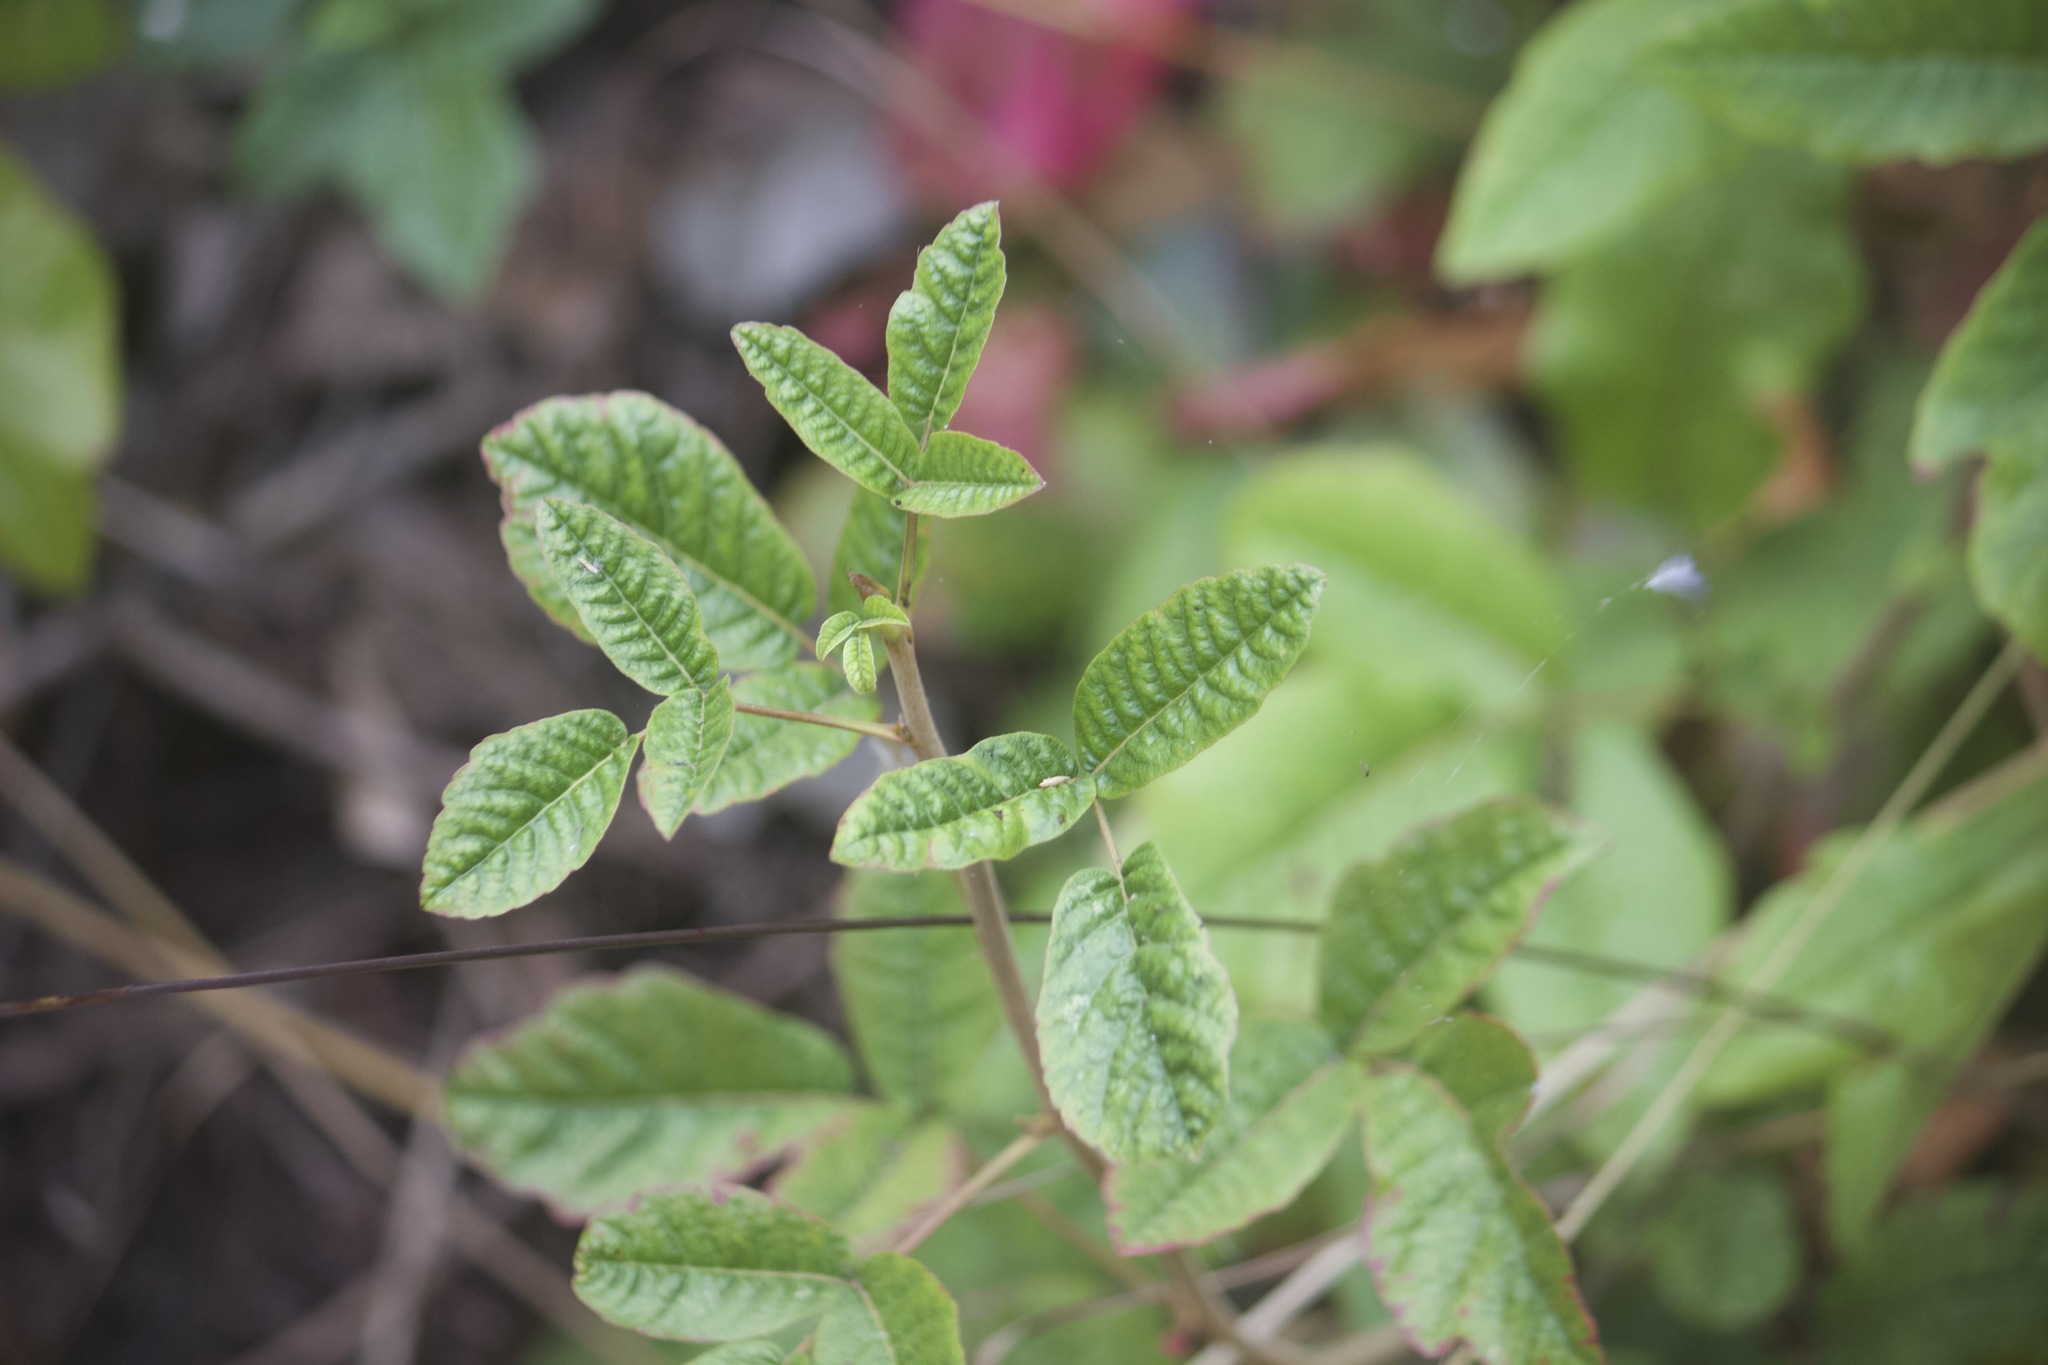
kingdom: Plantae
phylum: Tracheophyta
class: Magnoliopsida
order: Sapindales
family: Anacardiaceae
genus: Toxicodendron
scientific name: Toxicodendron diversilobum
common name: Pacific poison-oak
